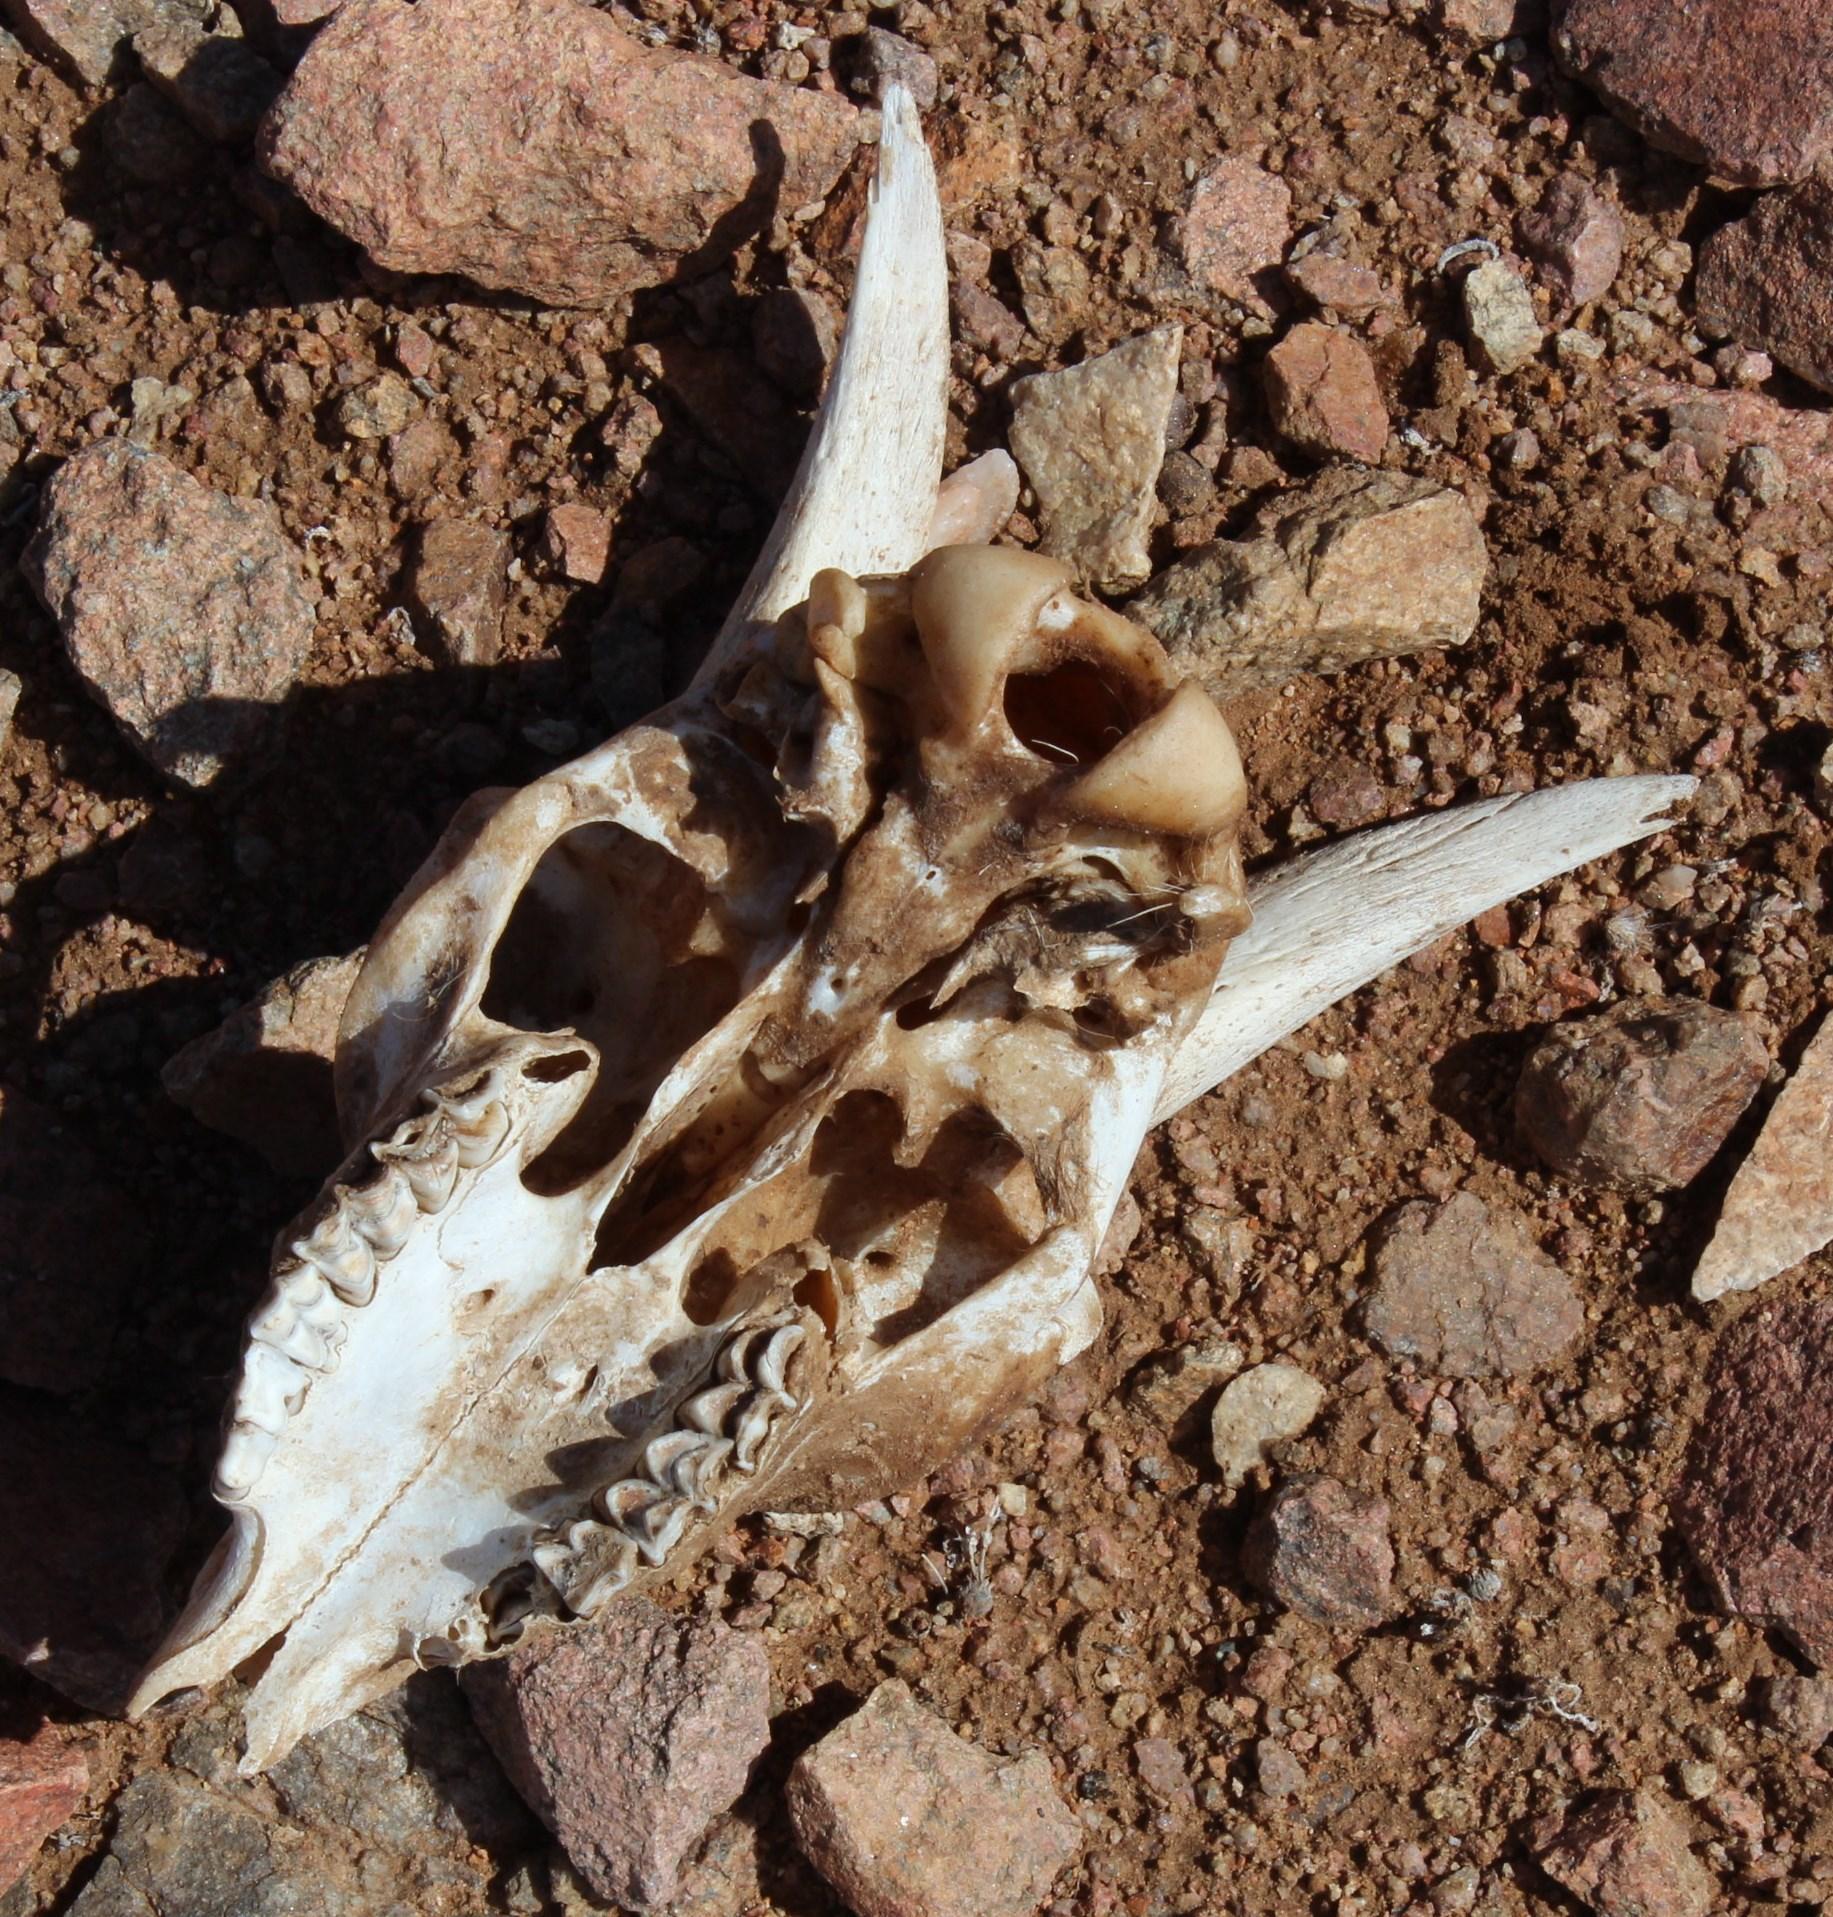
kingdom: Animalia
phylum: Chordata
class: Mammalia
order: Artiodactyla
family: Bovidae
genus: Capra
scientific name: Capra hircus
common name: Domestic goat
